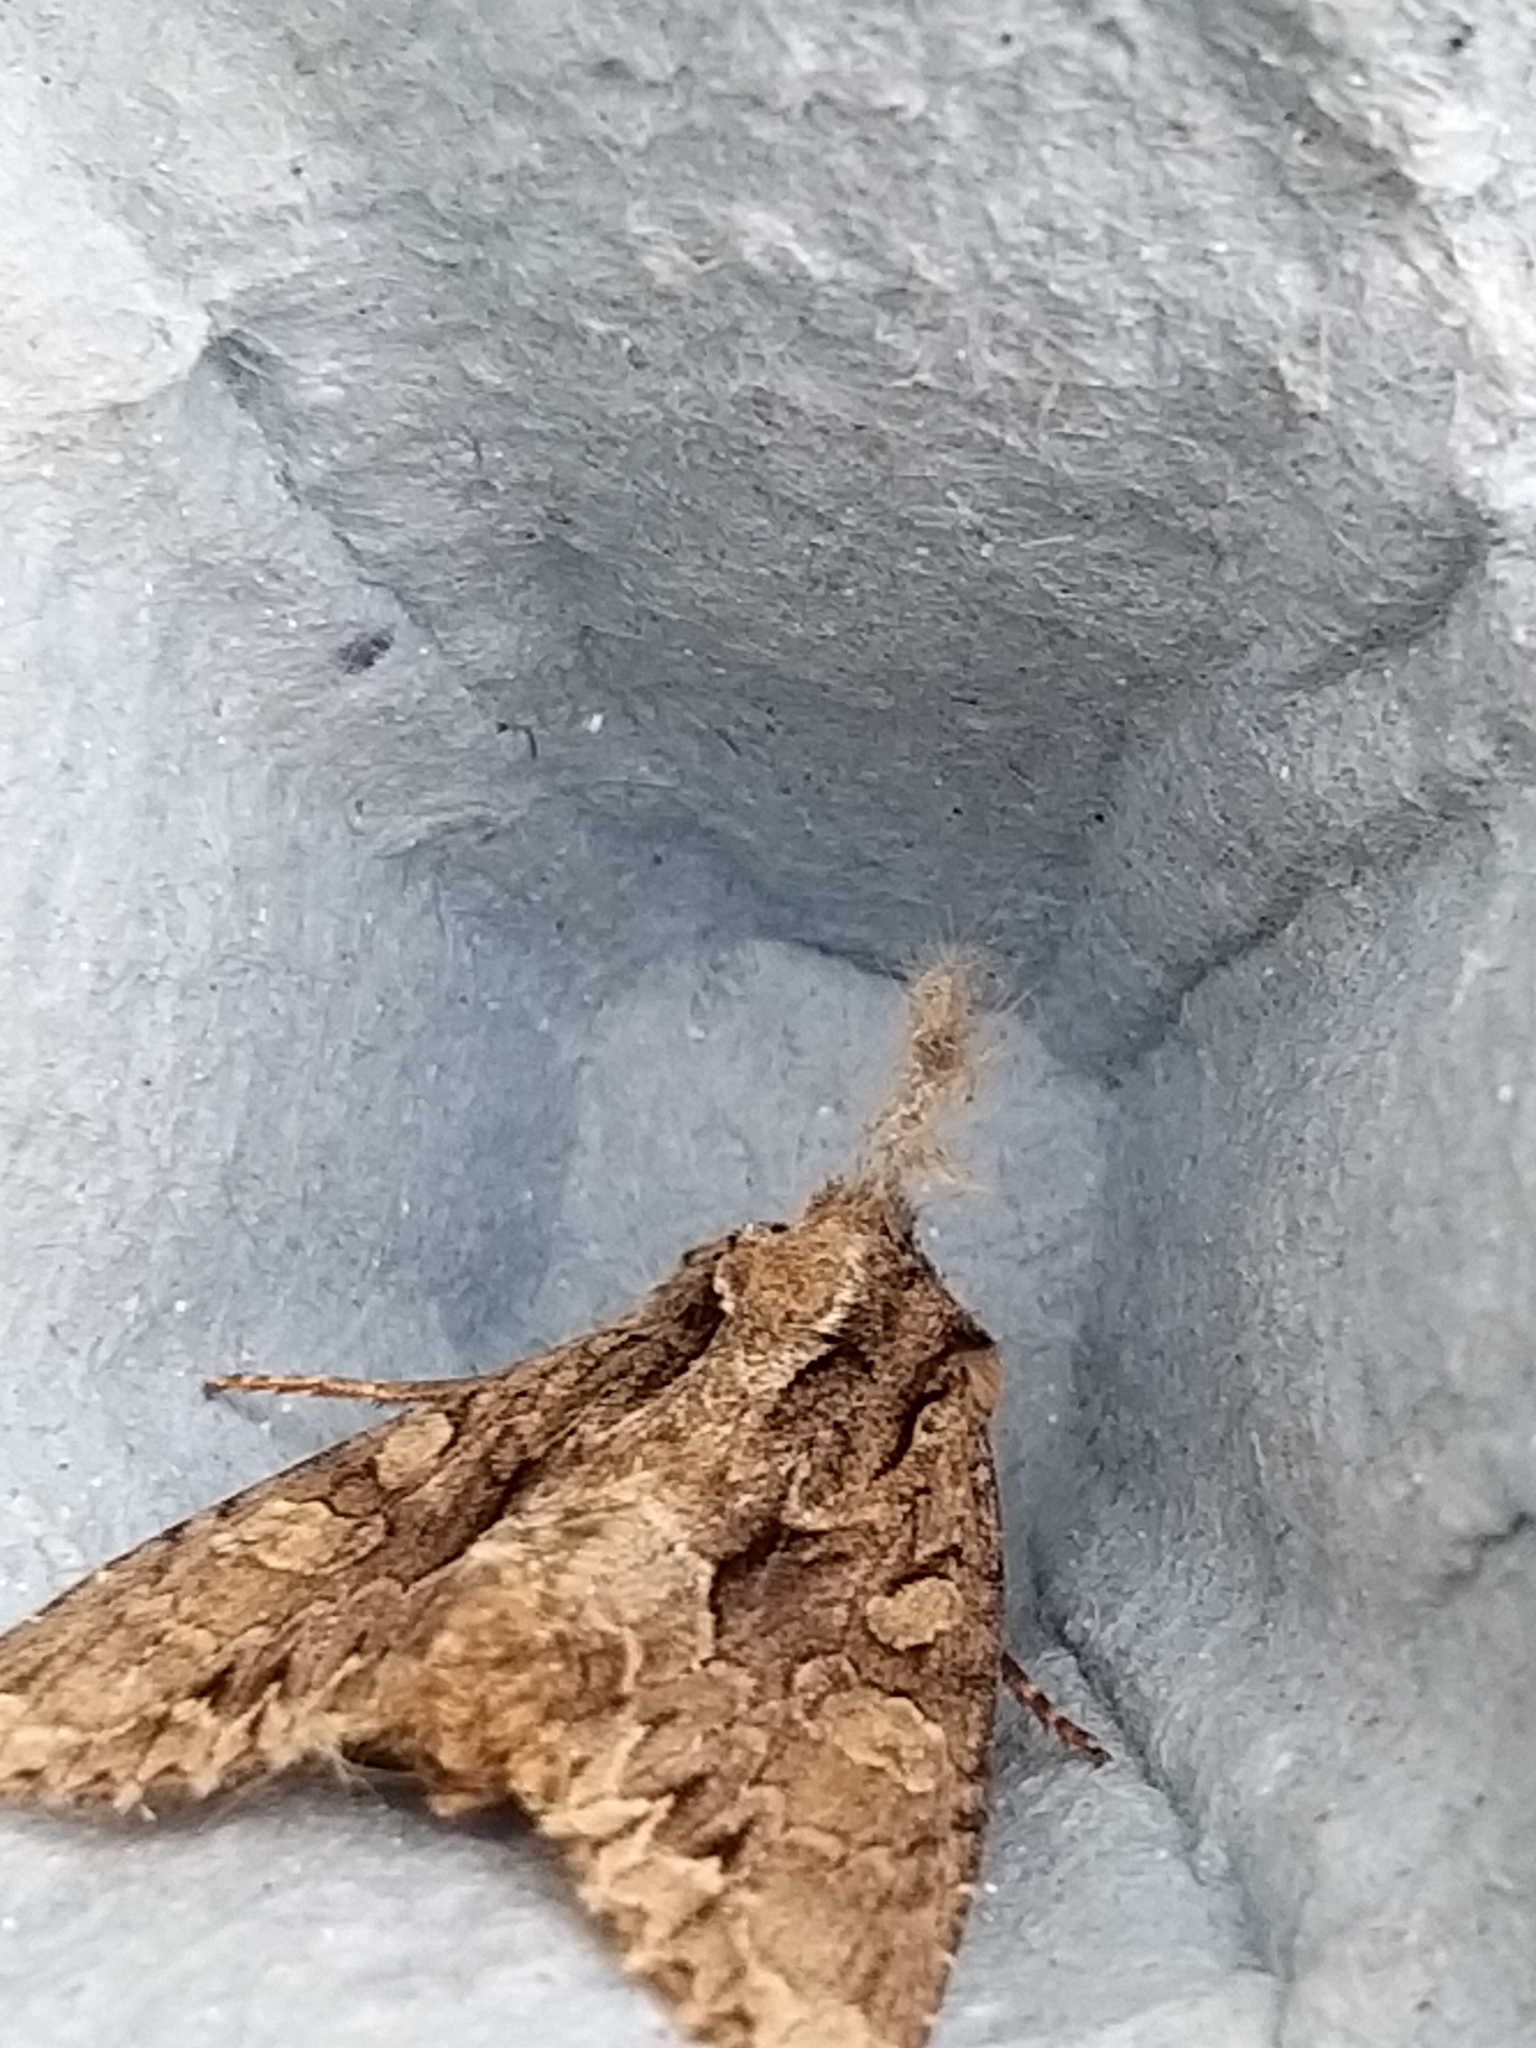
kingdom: Animalia
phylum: Arthropoda
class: Insecta
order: Lepidoptera
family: Noctuidae
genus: Apamea
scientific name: Apamea monoglypha
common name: Dark arches
